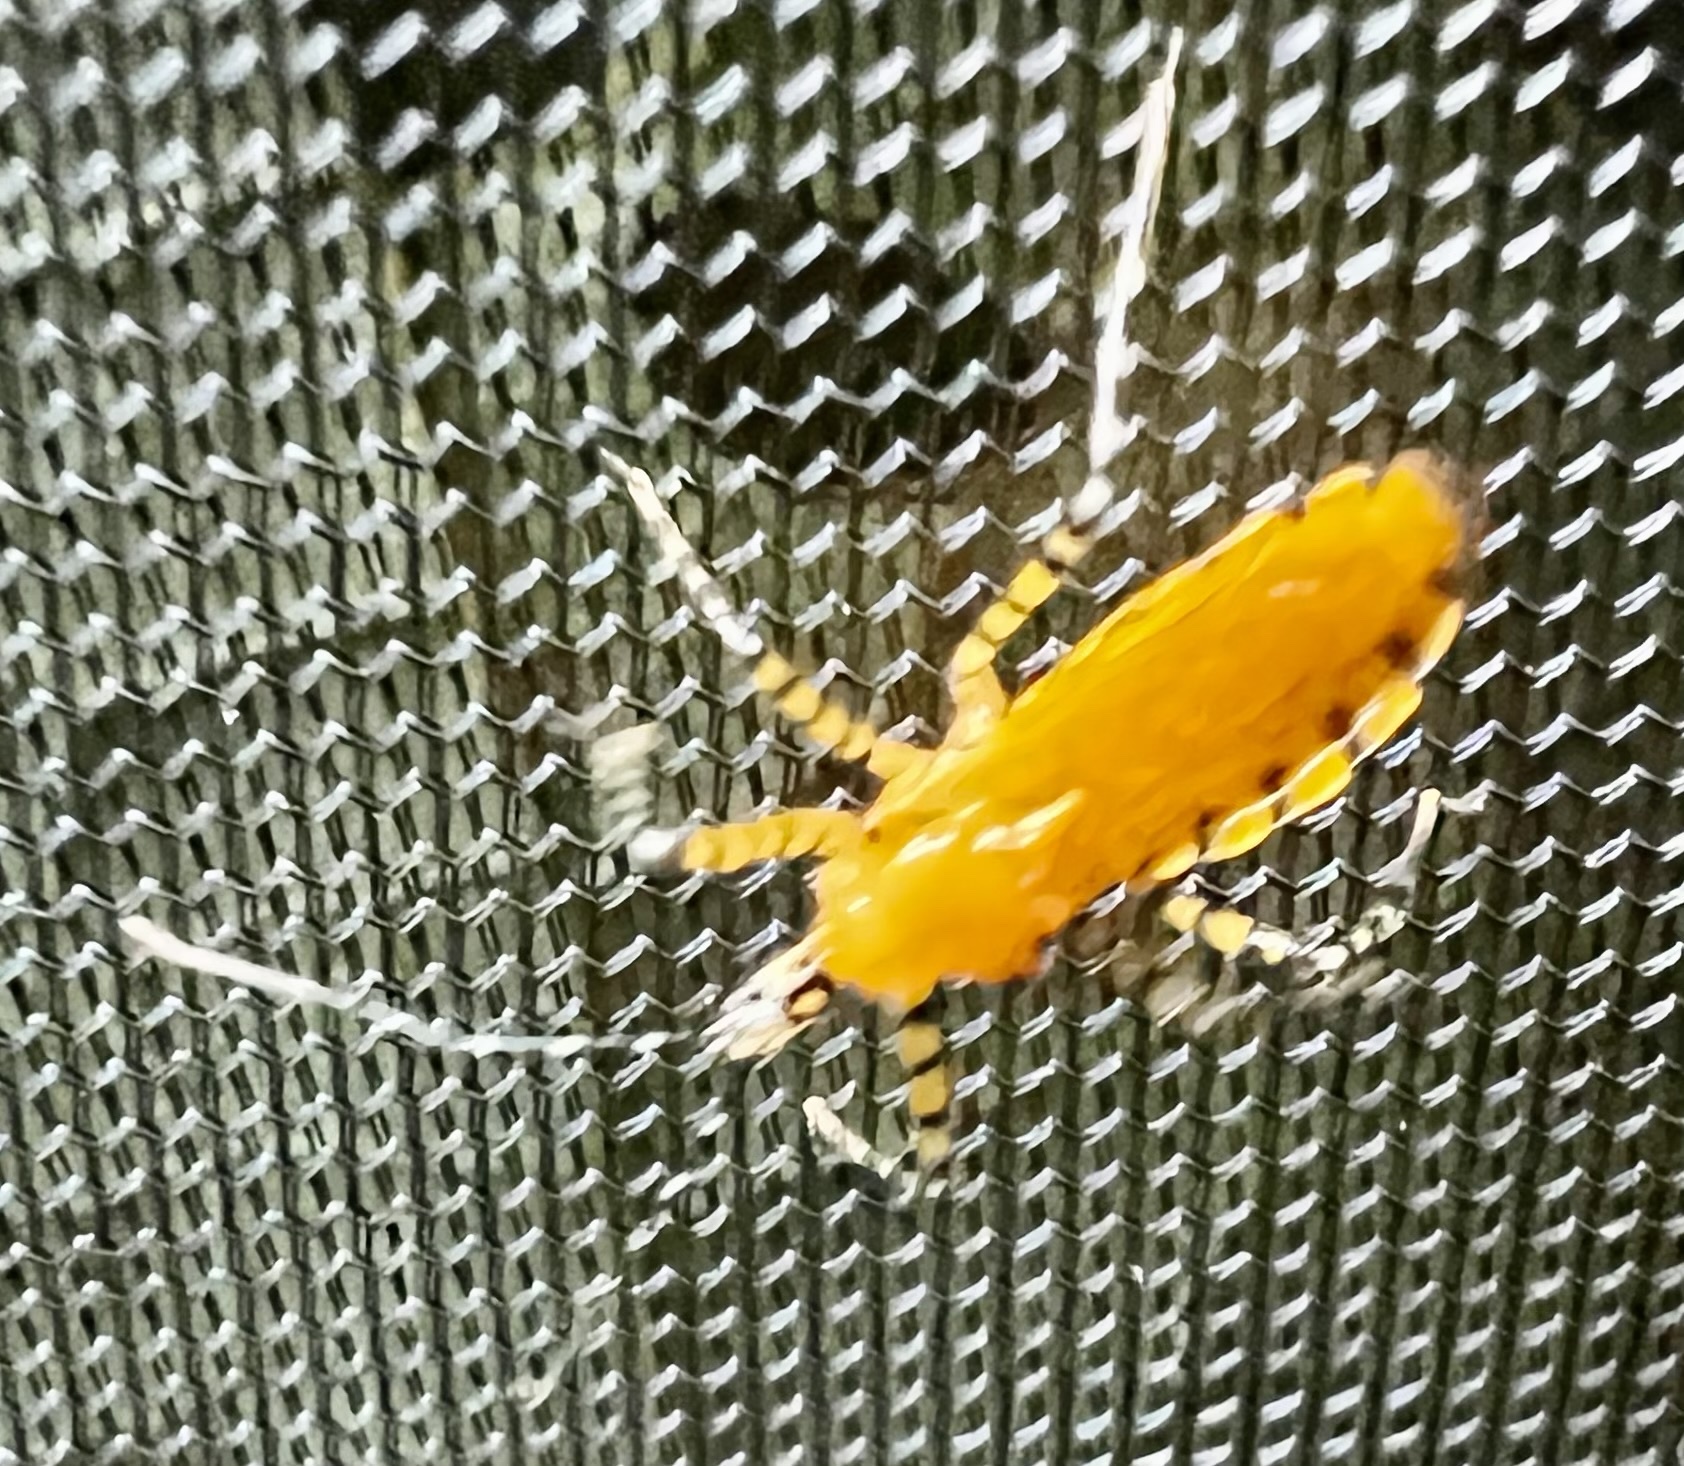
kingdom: Animalia
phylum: Arthropoda
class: Insecta
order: Hemiptera
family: Reduviidae
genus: Pselliopus
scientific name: Pselliopus barberi
